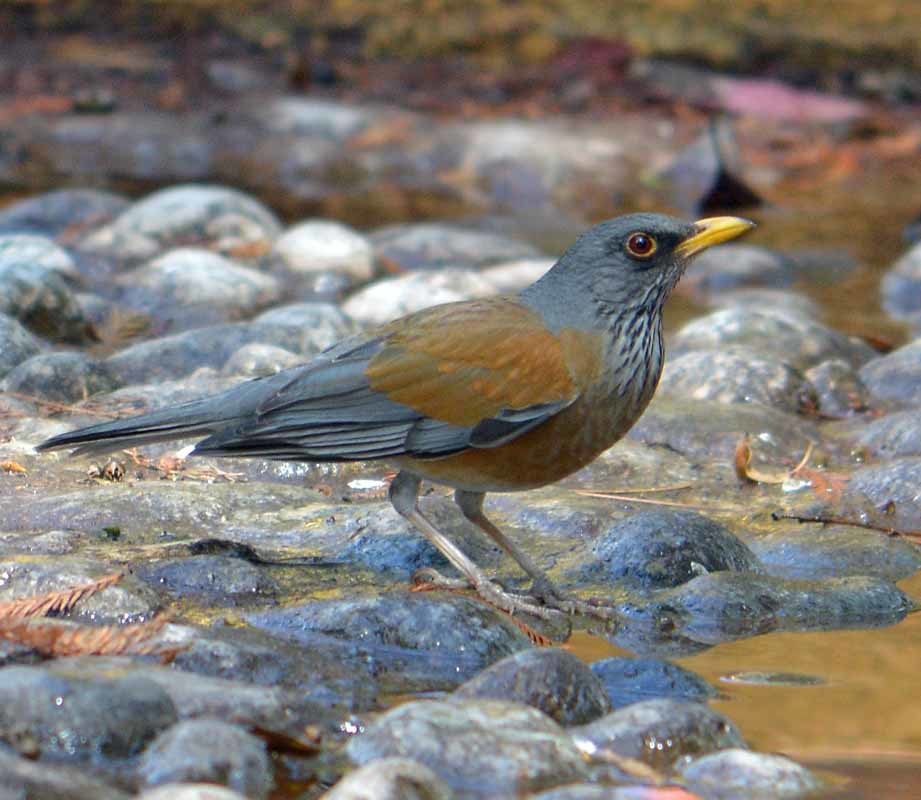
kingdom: Animalia
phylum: Chordata
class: Aves
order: Passeriformes
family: Turdidae
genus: Turdus
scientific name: Turdus rufopalliatus
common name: Rufous-backed robin
